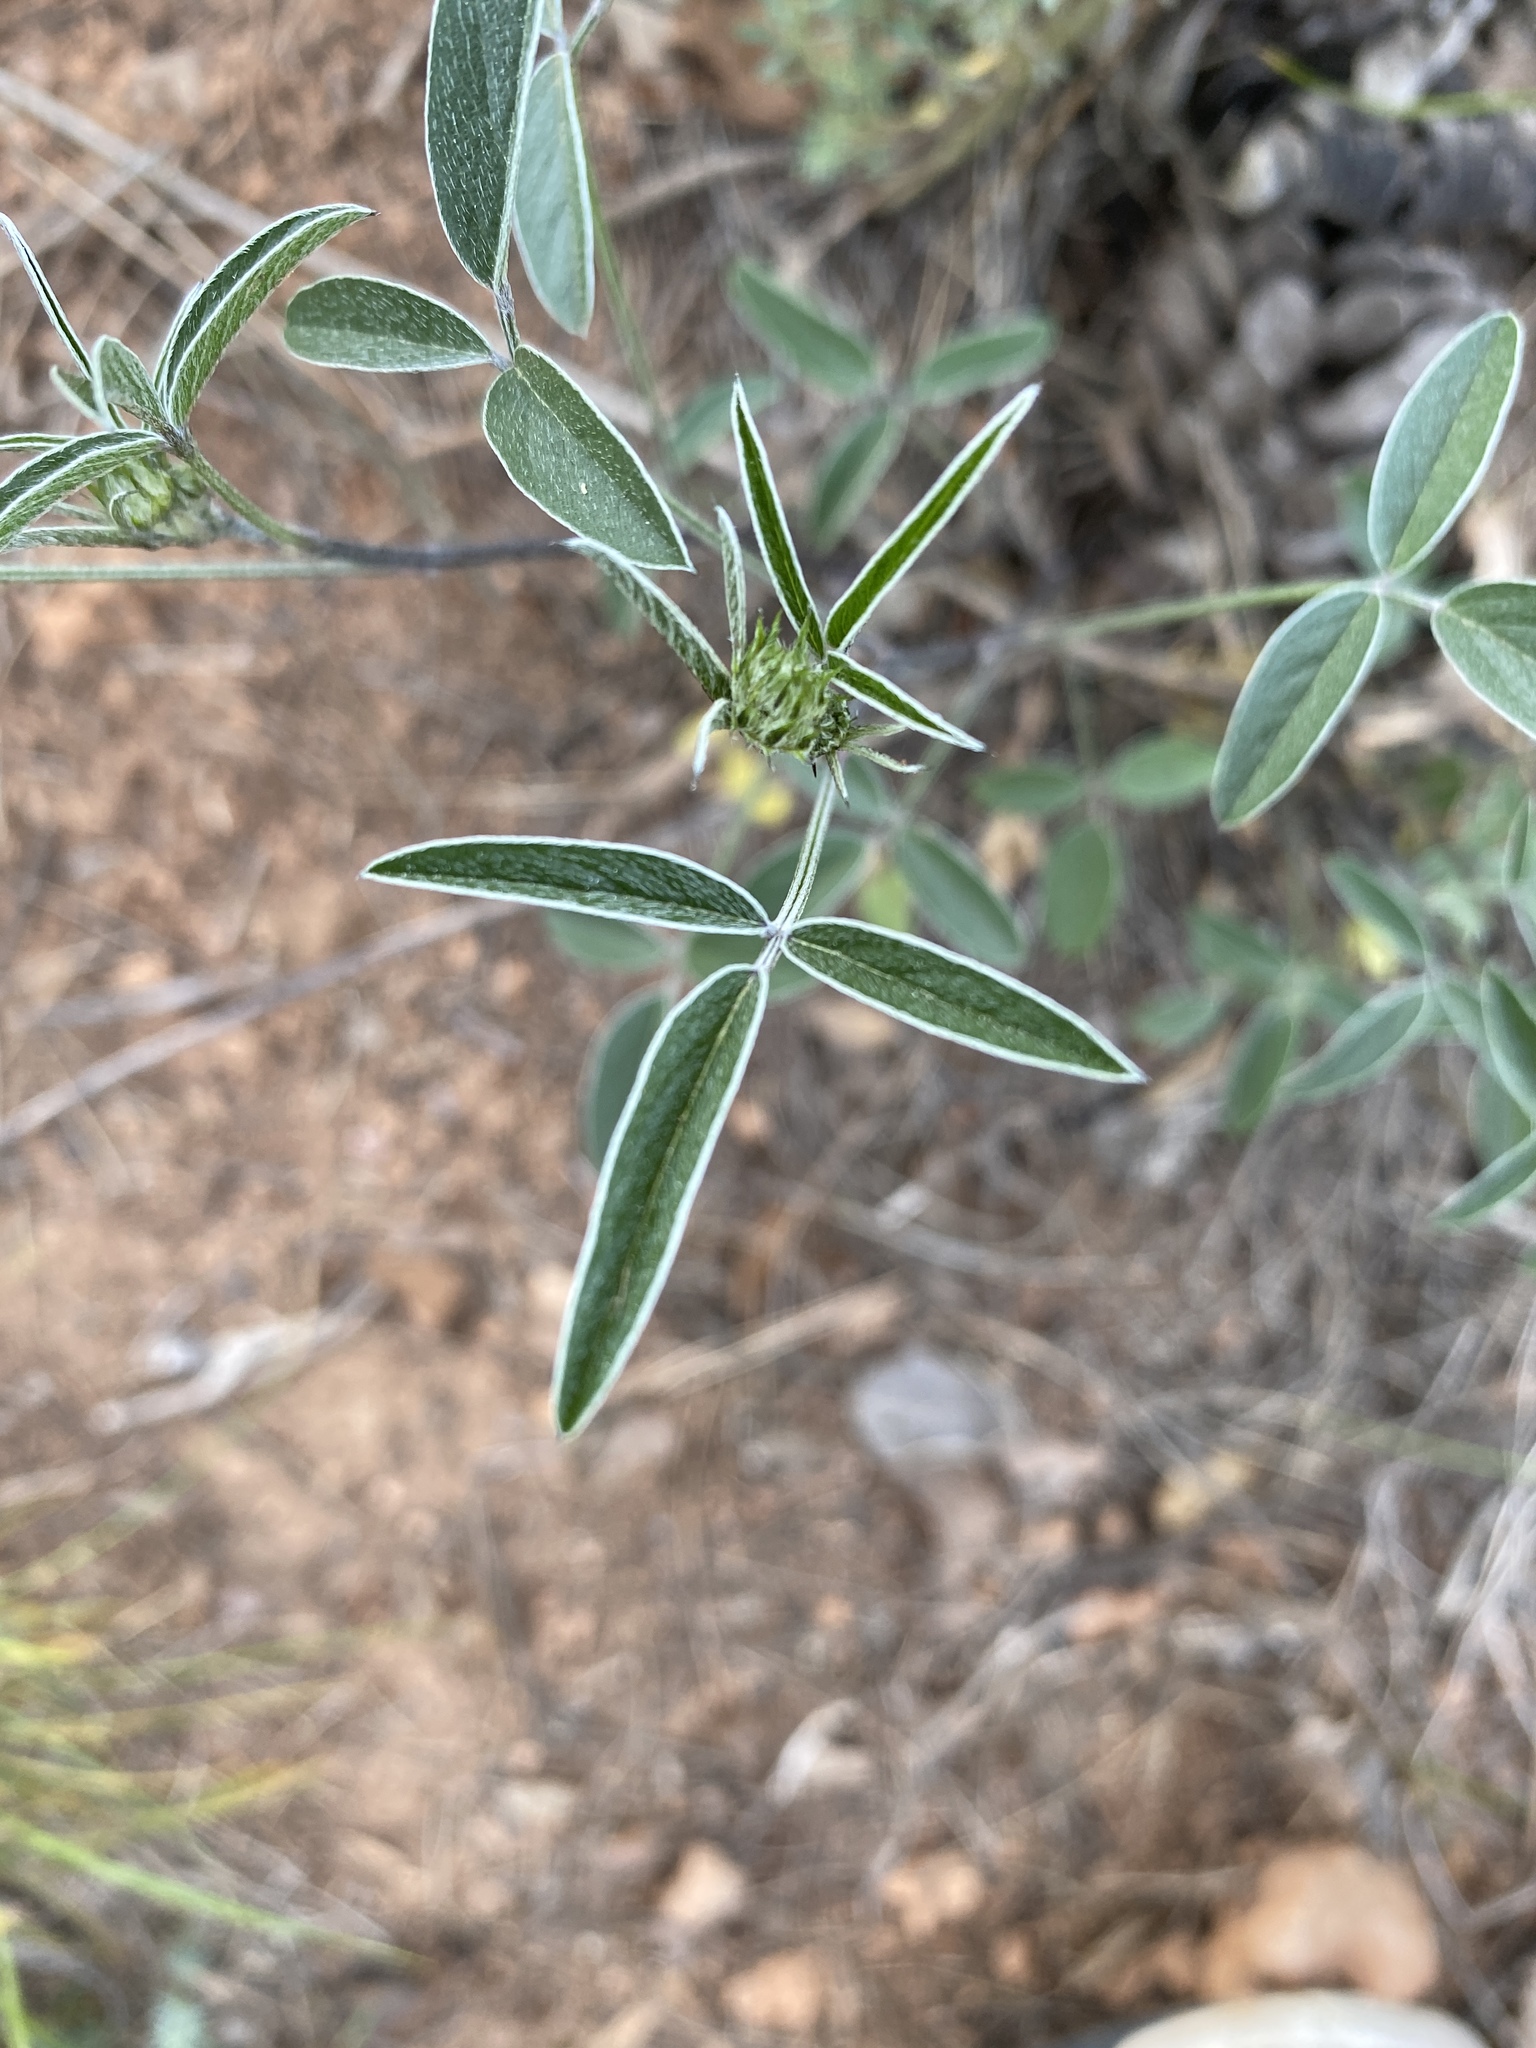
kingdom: Plantae
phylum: Tracheophyta
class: Magnoliopsida
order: Fabales
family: Fabaceae
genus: Bituminaria
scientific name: Bituminaria bituminosa
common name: Arabian pea
